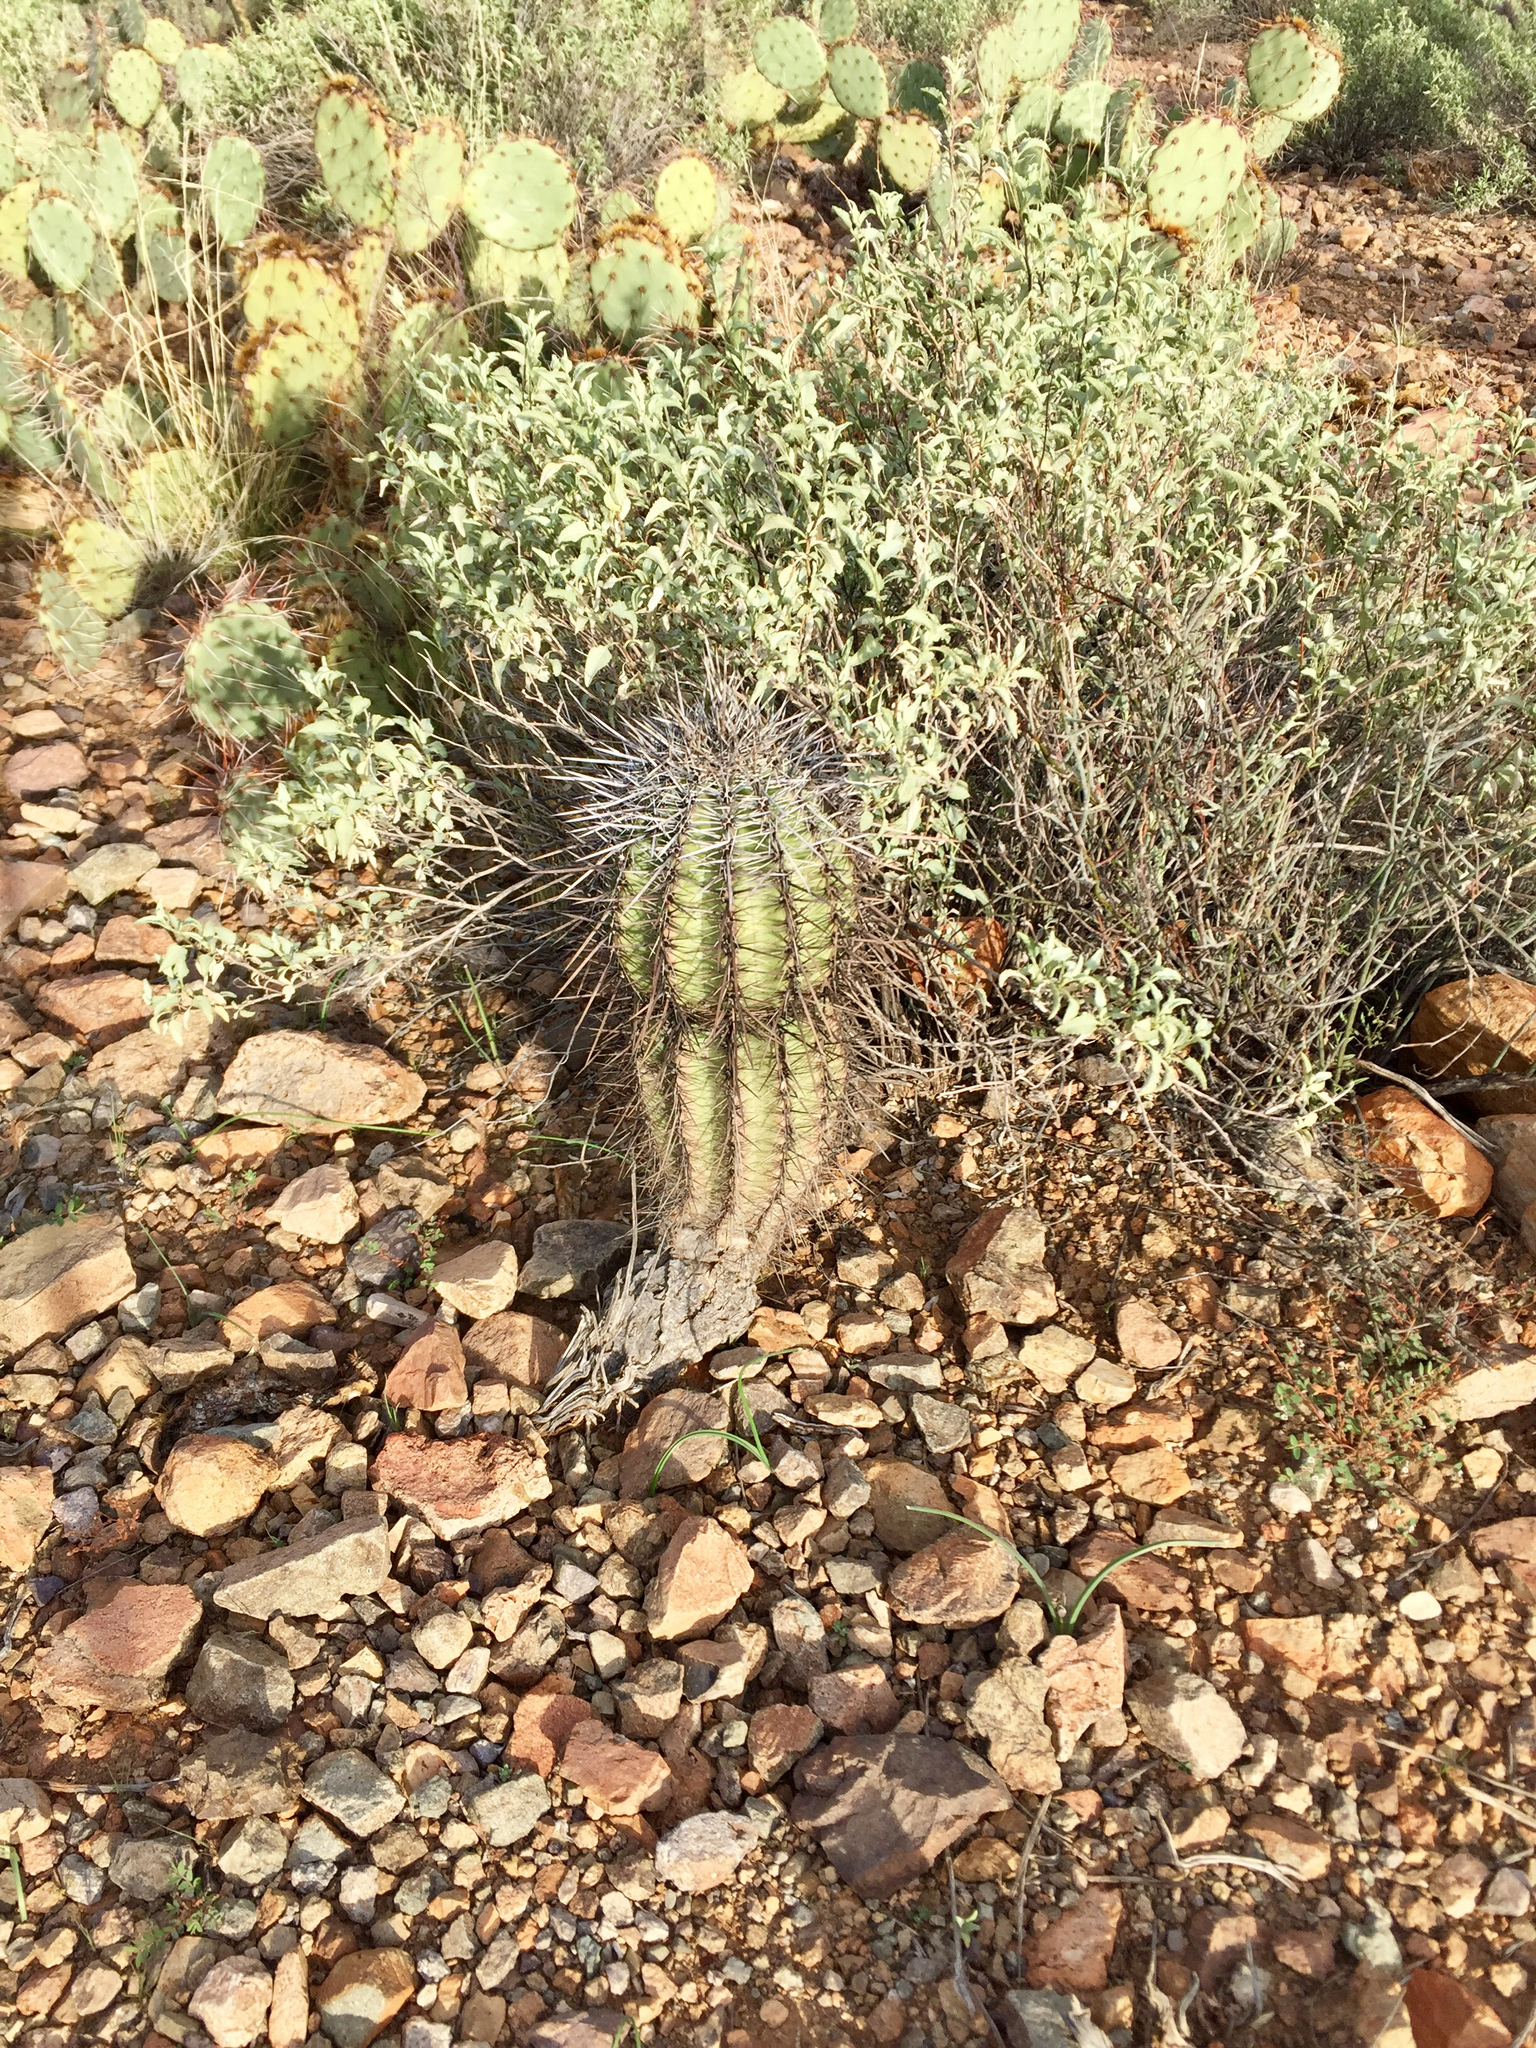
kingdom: Plantae
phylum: Tracheophyta
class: Magnoliopsida
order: Caryophyllales
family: Cactaceae
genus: Carnegiea
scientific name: Carnegiea gigantea
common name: Saguaro
